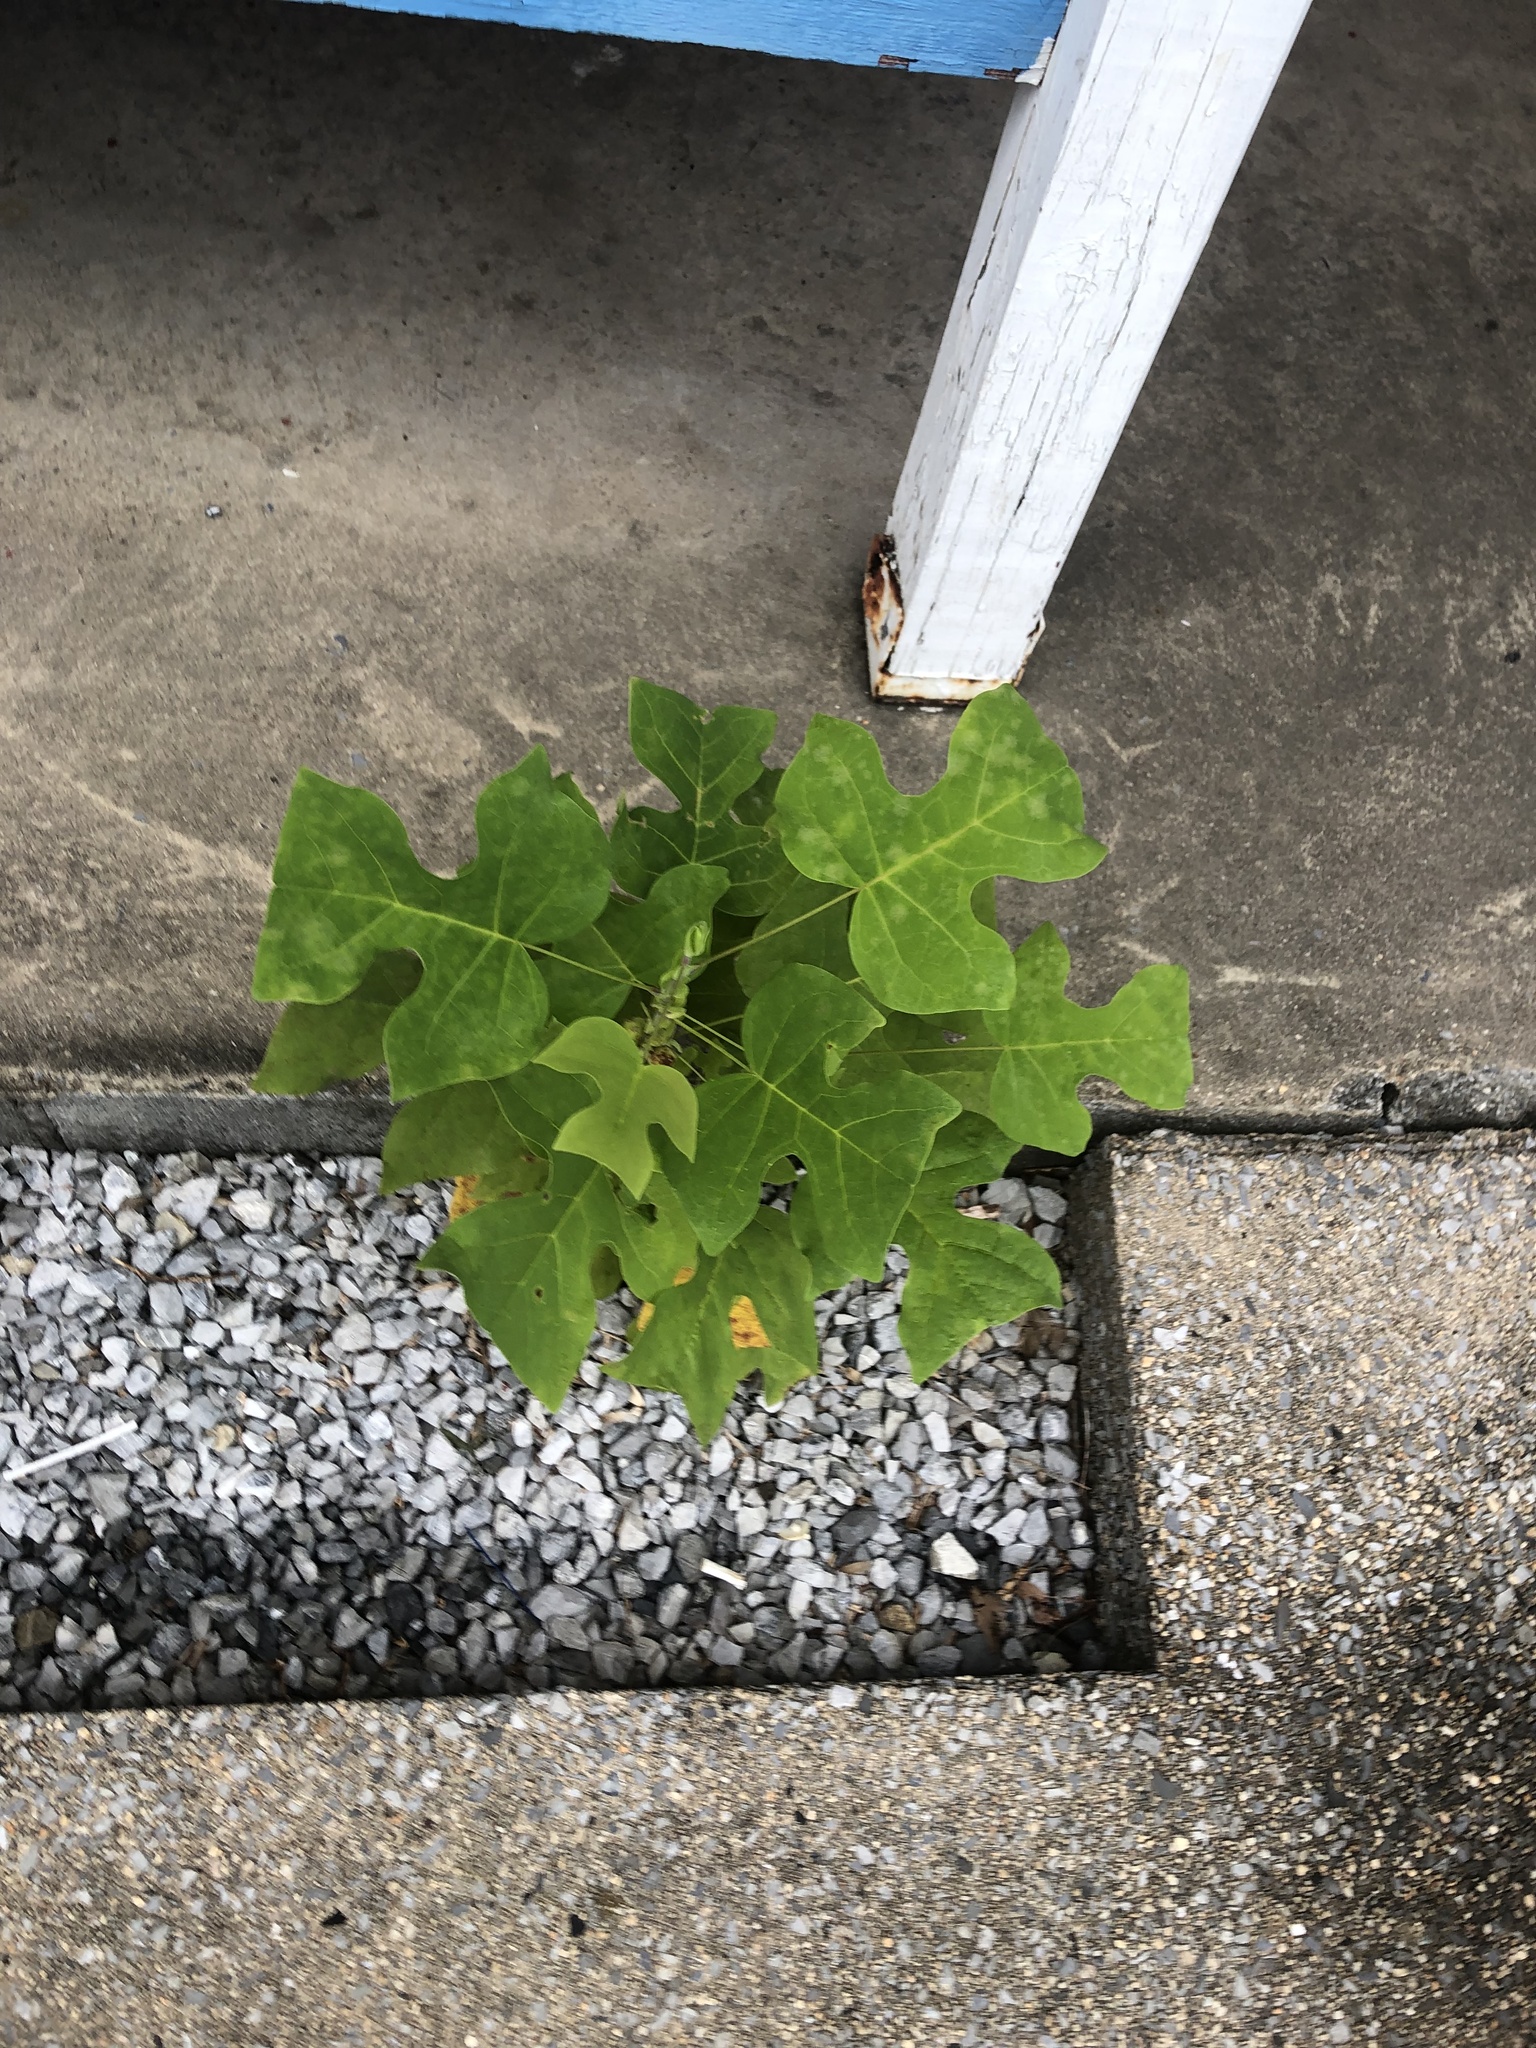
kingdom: Plantae
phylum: Tracheophyta
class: Magnoliopsida
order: Magnoliales
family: Magnoliaceae
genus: Liriodendron
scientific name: Liriodendron tulipifera
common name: Tulip tree
